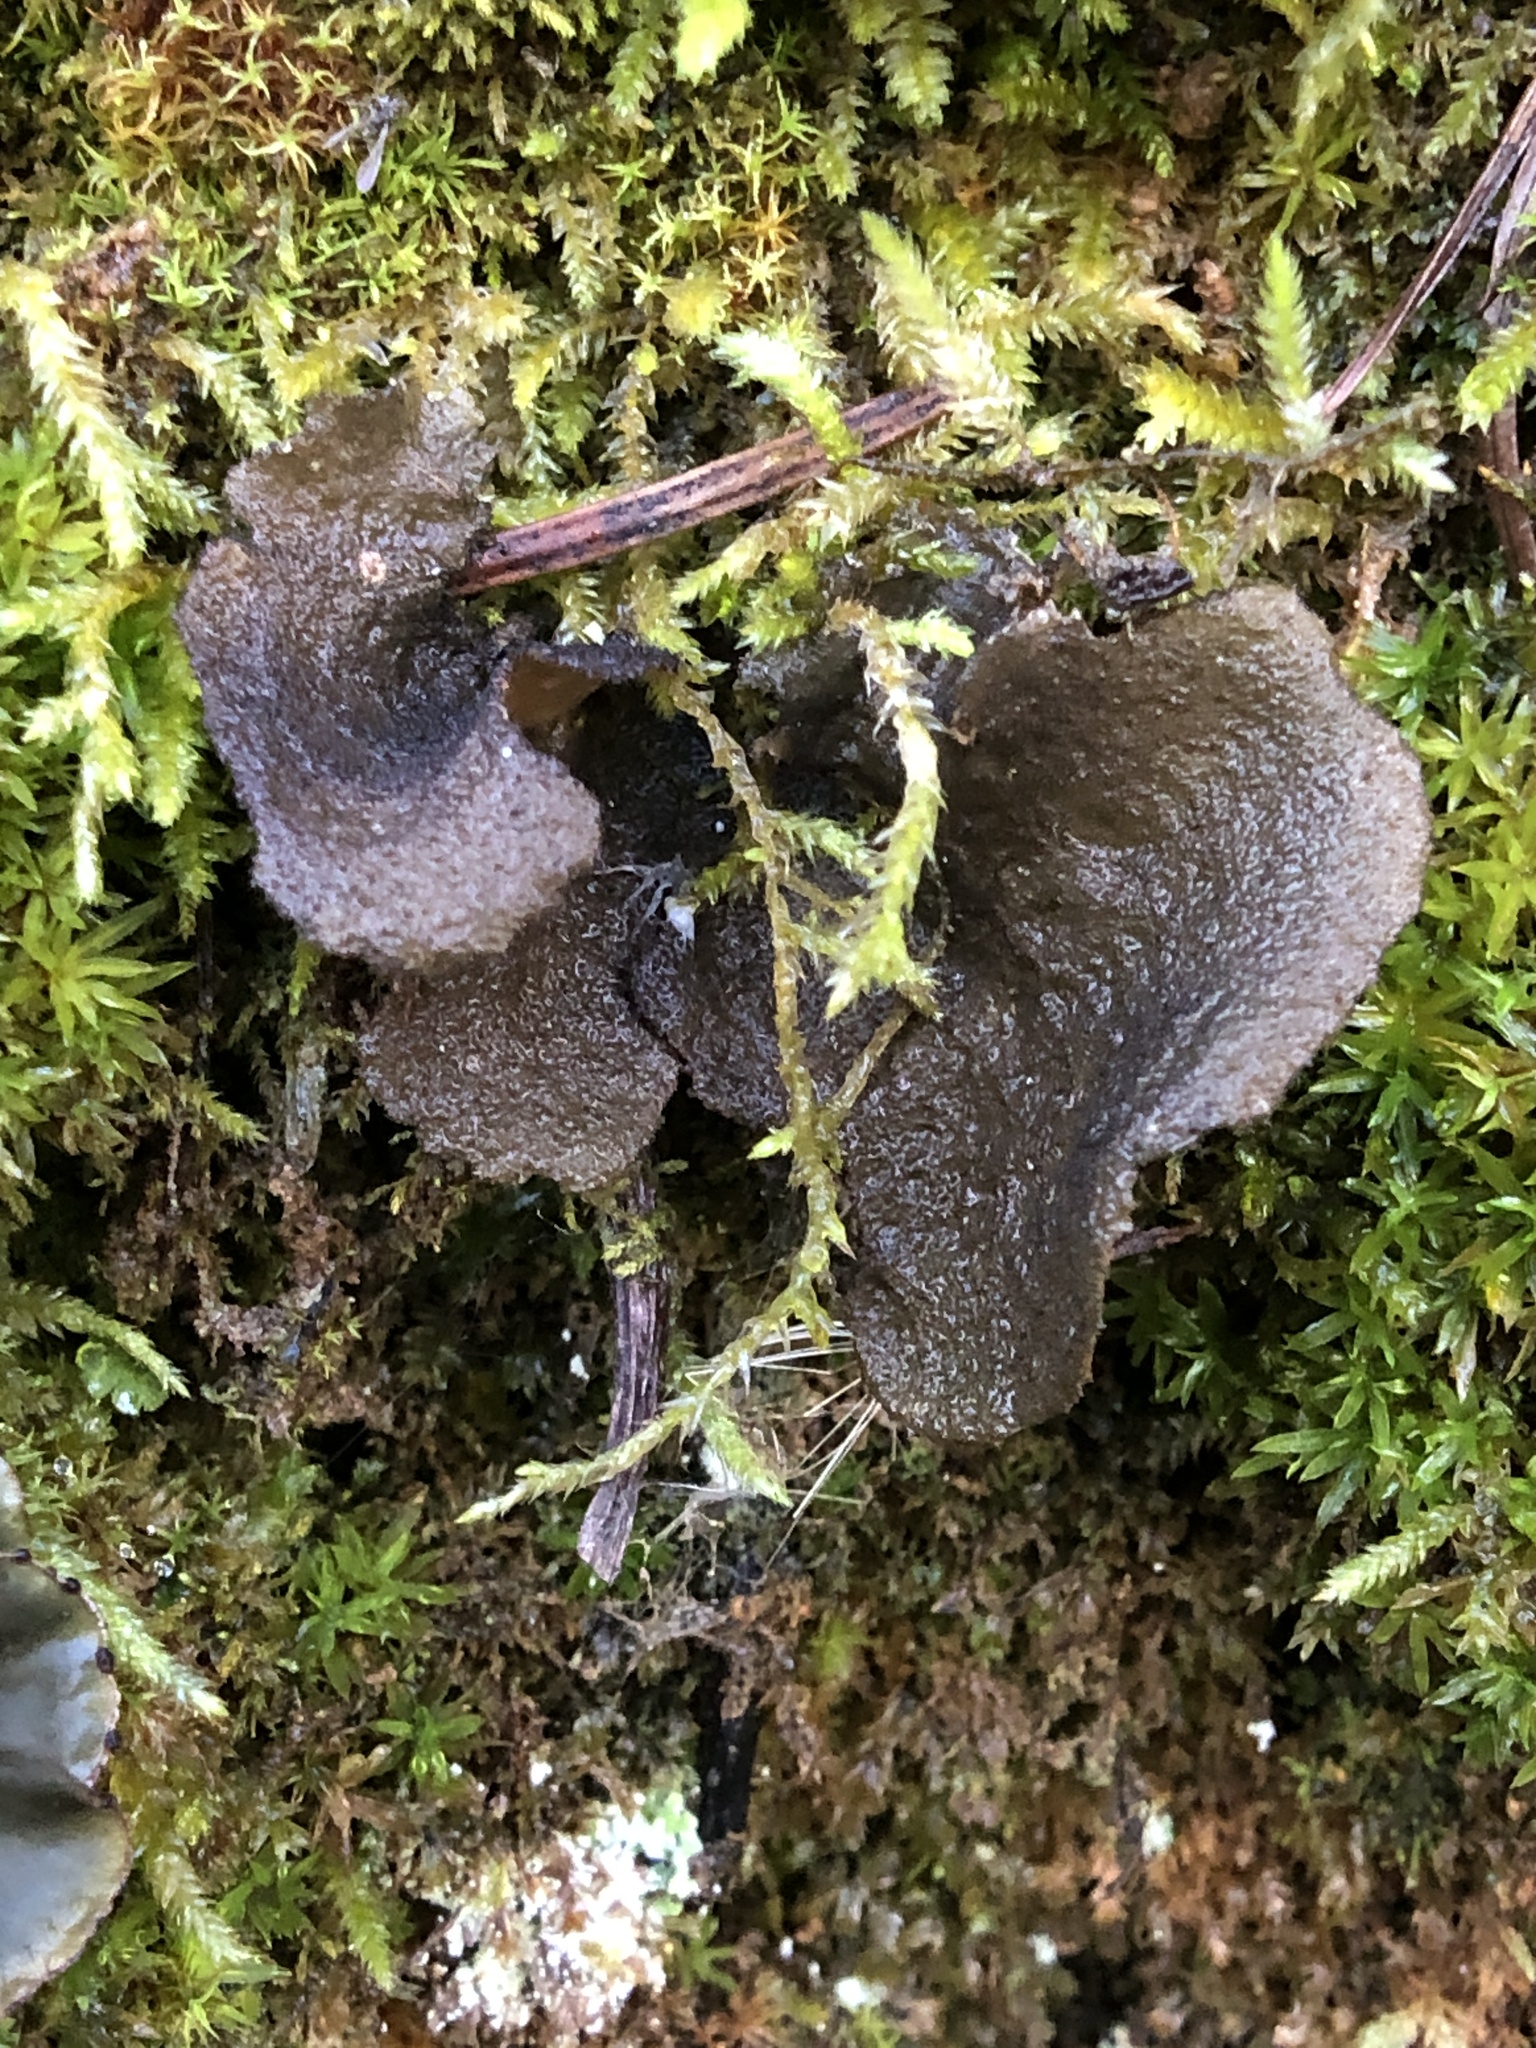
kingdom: Fungi
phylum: Ascomycota
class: Lecanoromycetes
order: Peltigerales
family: Lobariaceae
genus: Sticta
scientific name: Sticta
